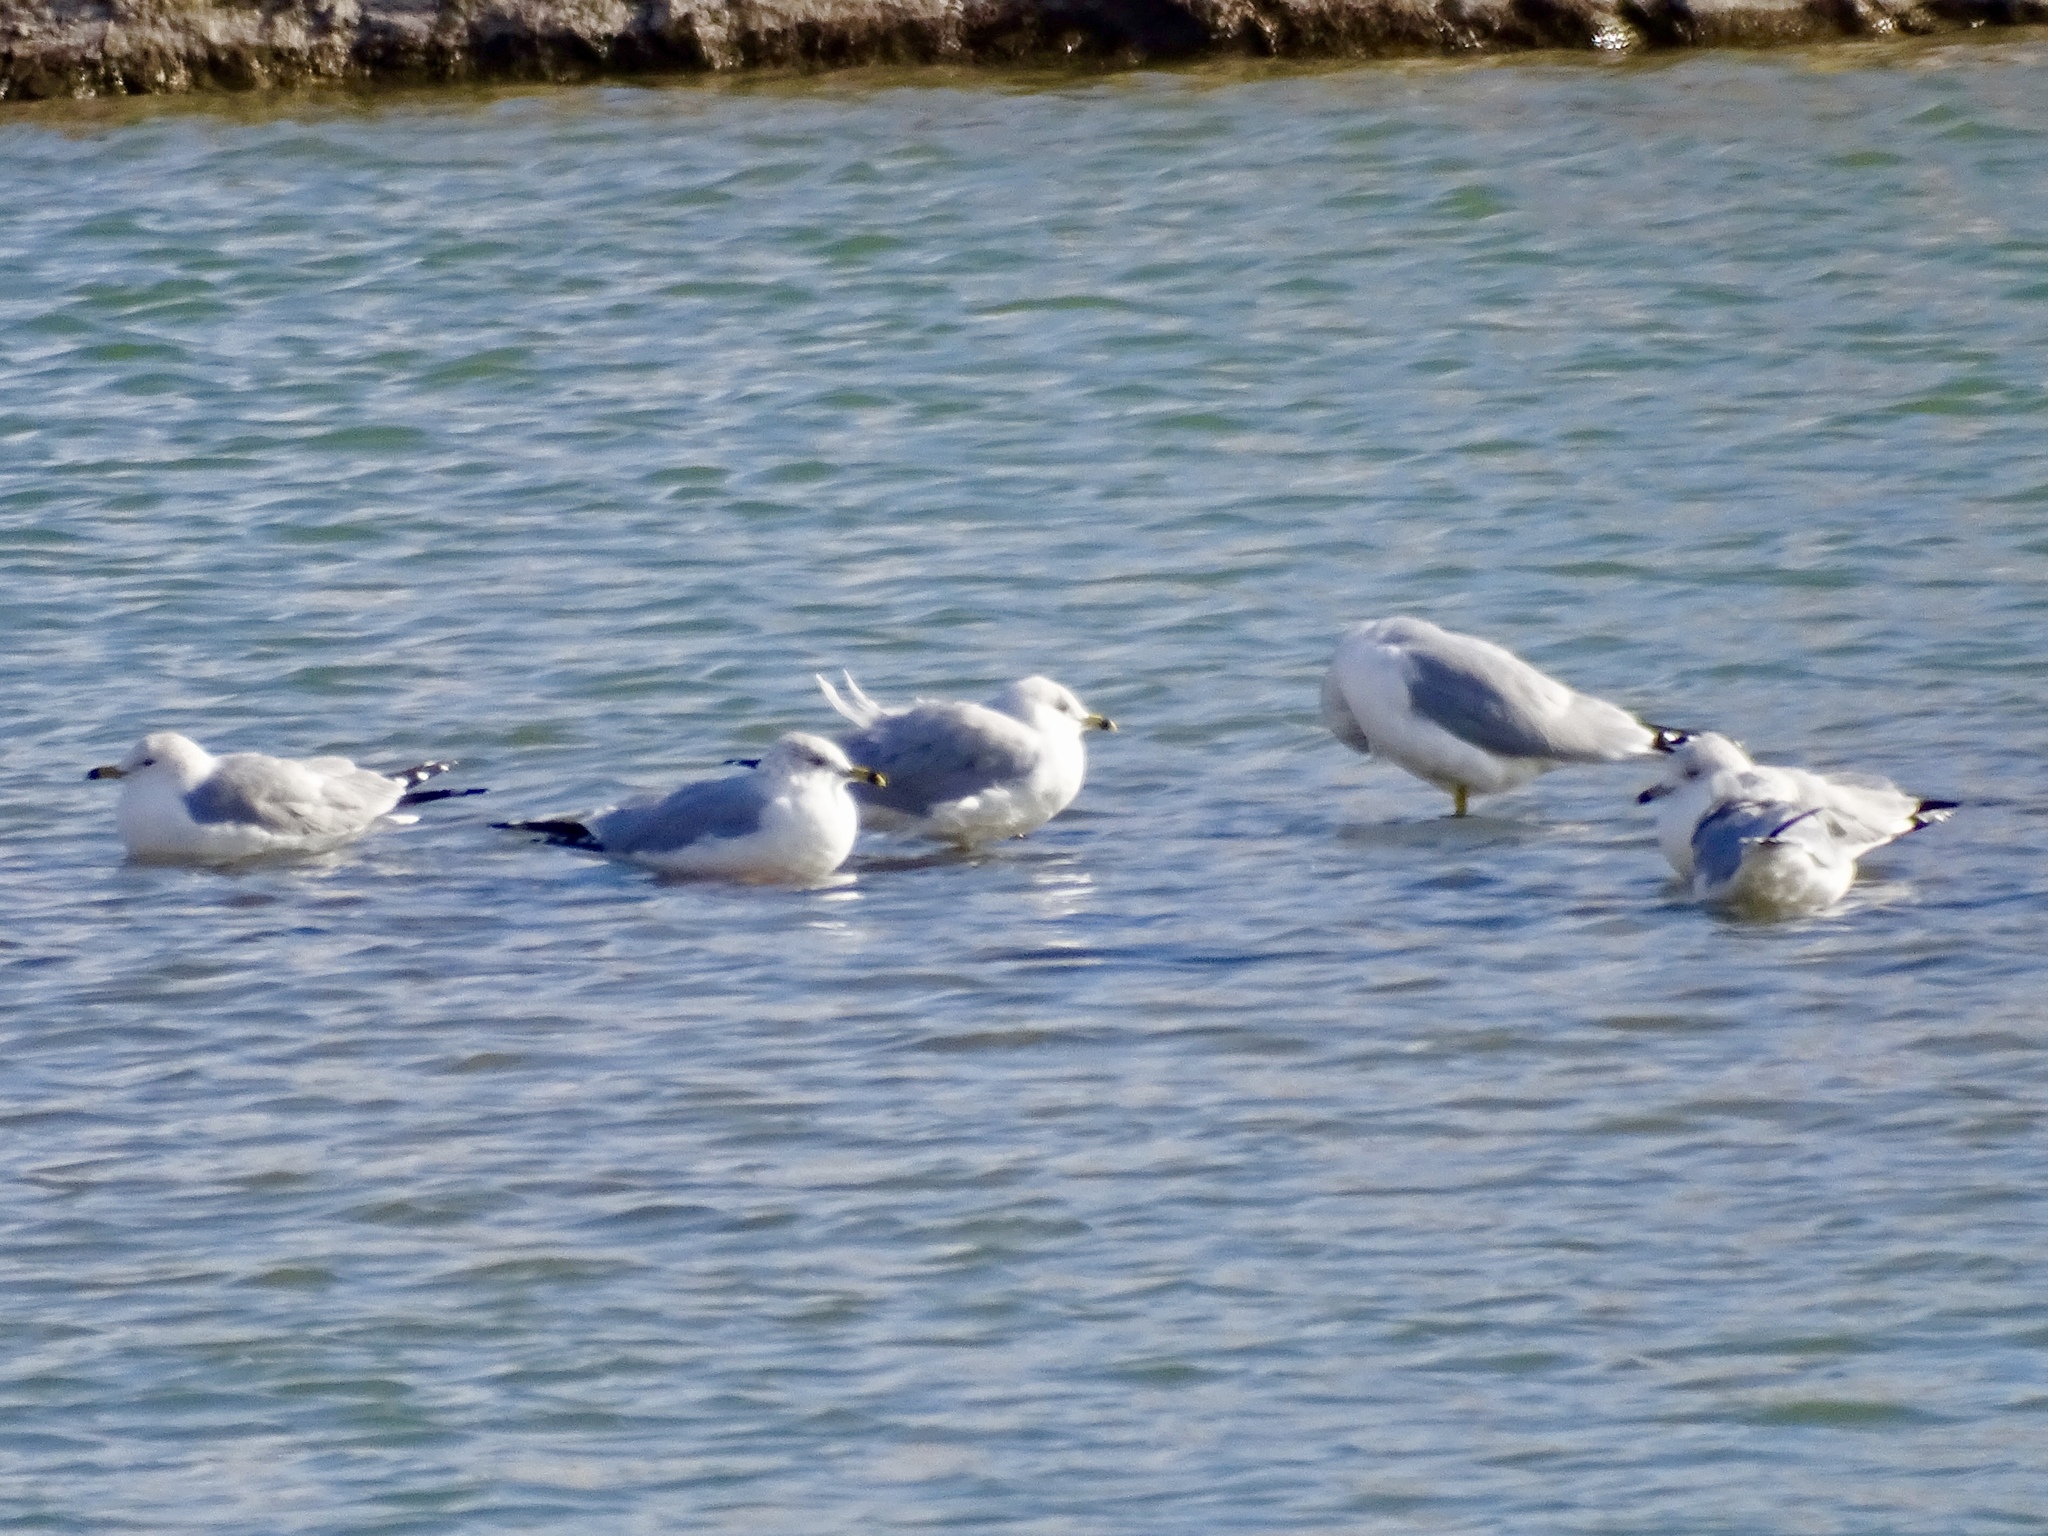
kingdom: Animalia
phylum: Chordata
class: Aves
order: Charadriiformes
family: Laridae
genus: Larus
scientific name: Larus delawarensis
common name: Ring-billed gull
